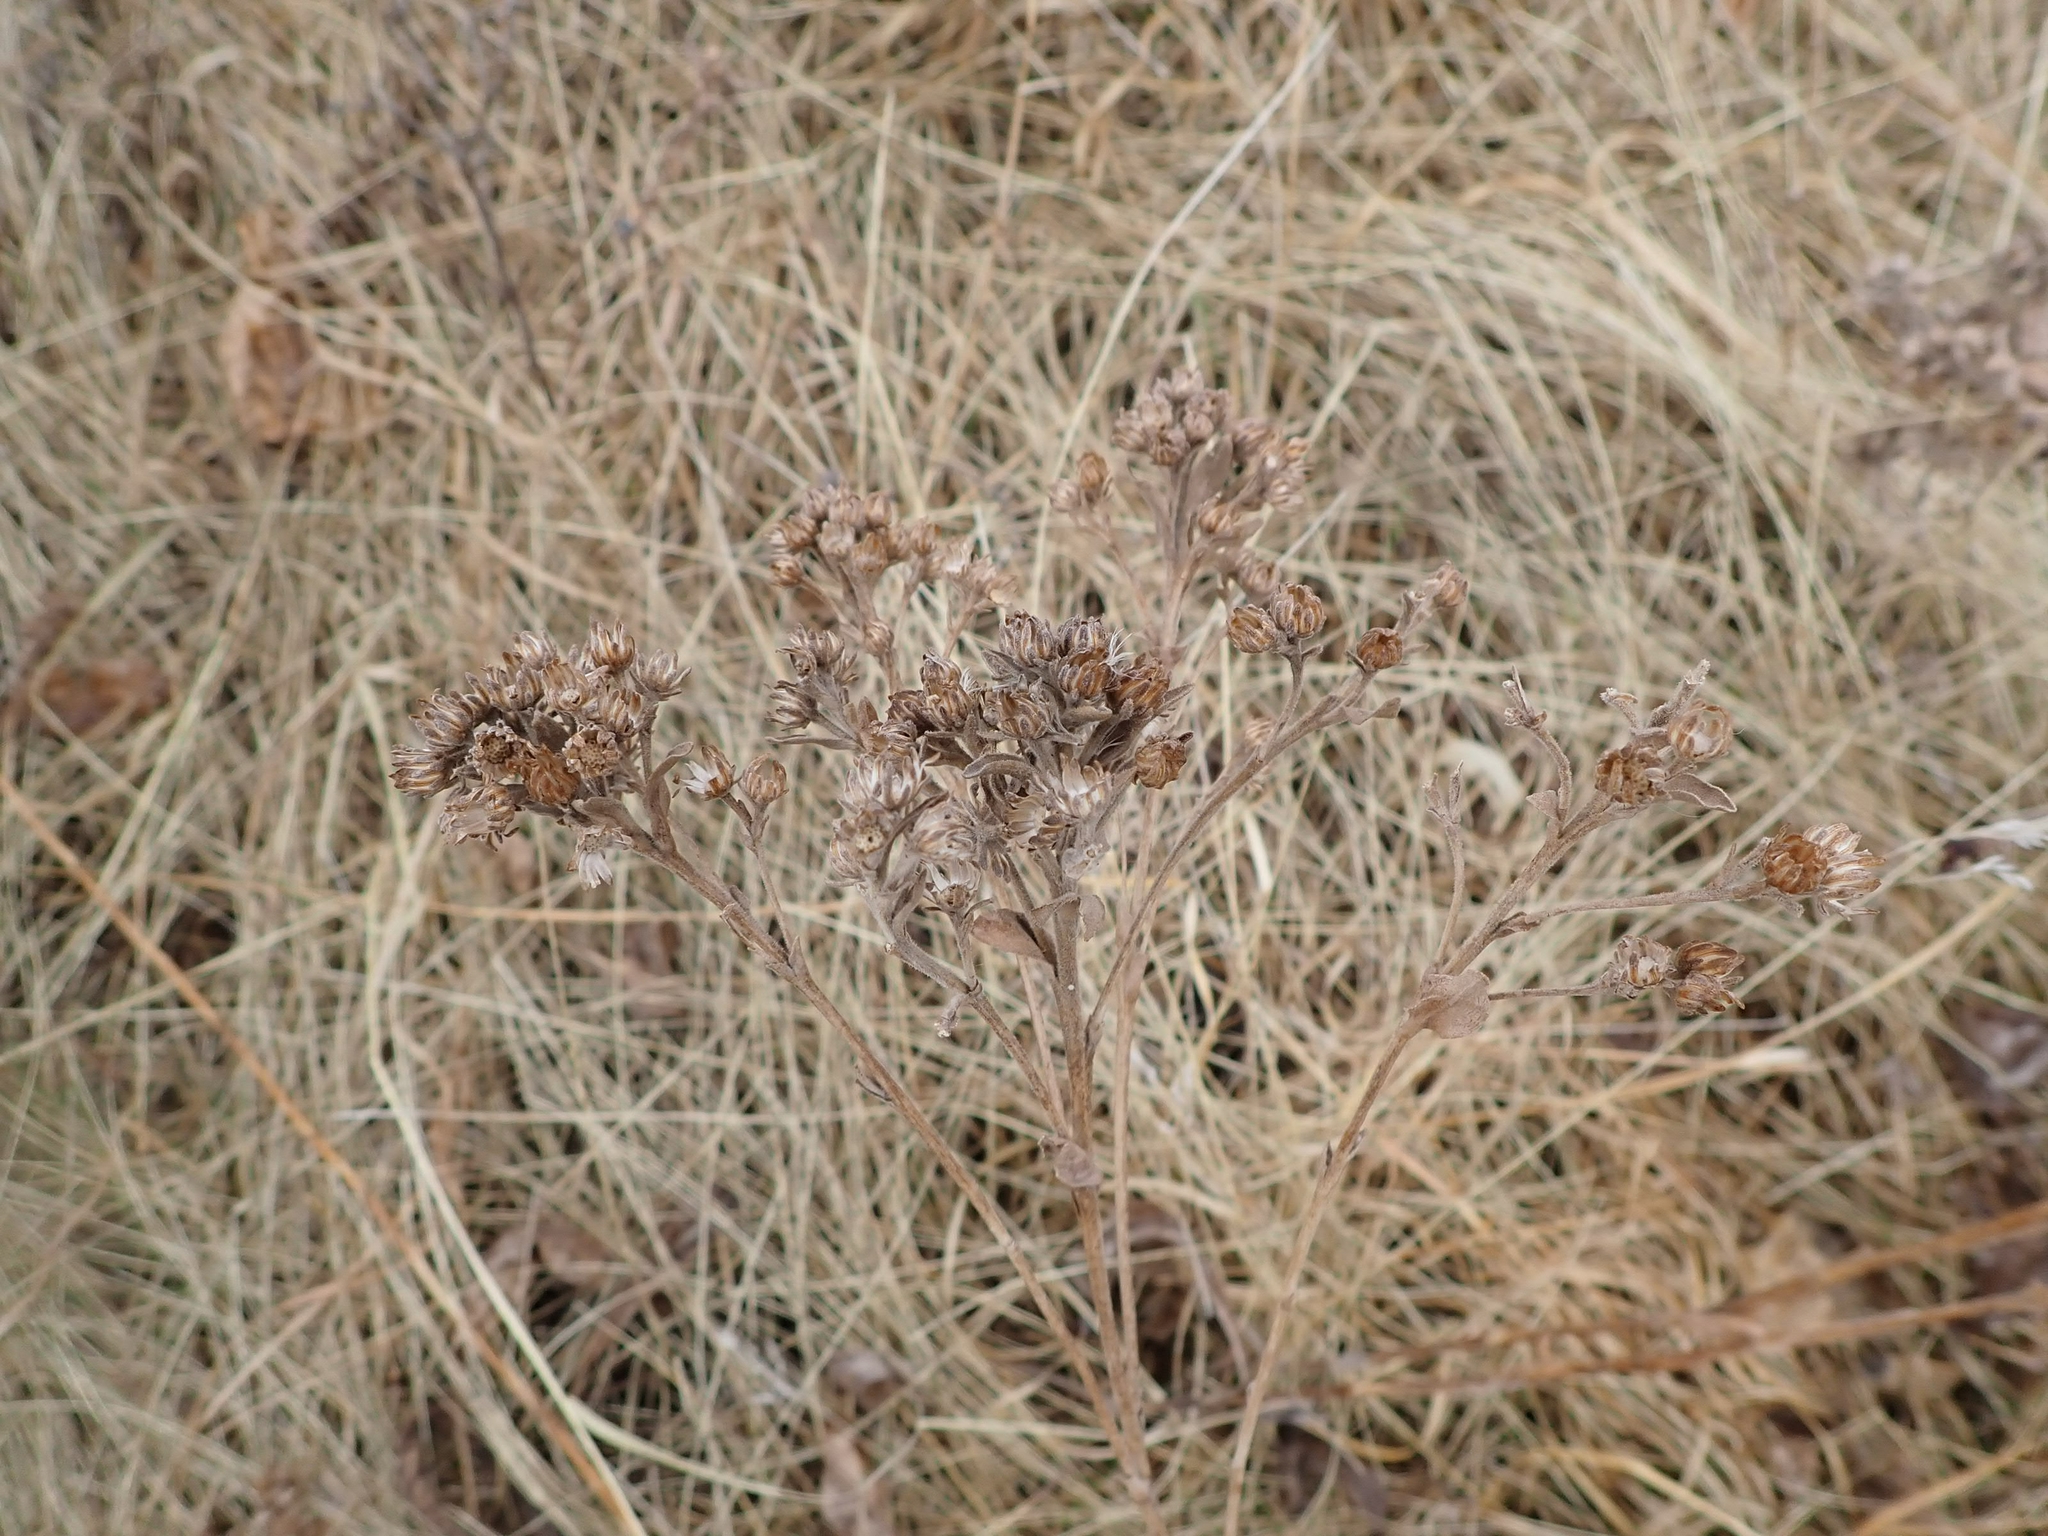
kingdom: Plantae
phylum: Tracheophyta
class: Magnoliopsida
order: Asterales
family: Asteraceae
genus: Achillea
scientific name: Achillea millefolium
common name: Yarrow
